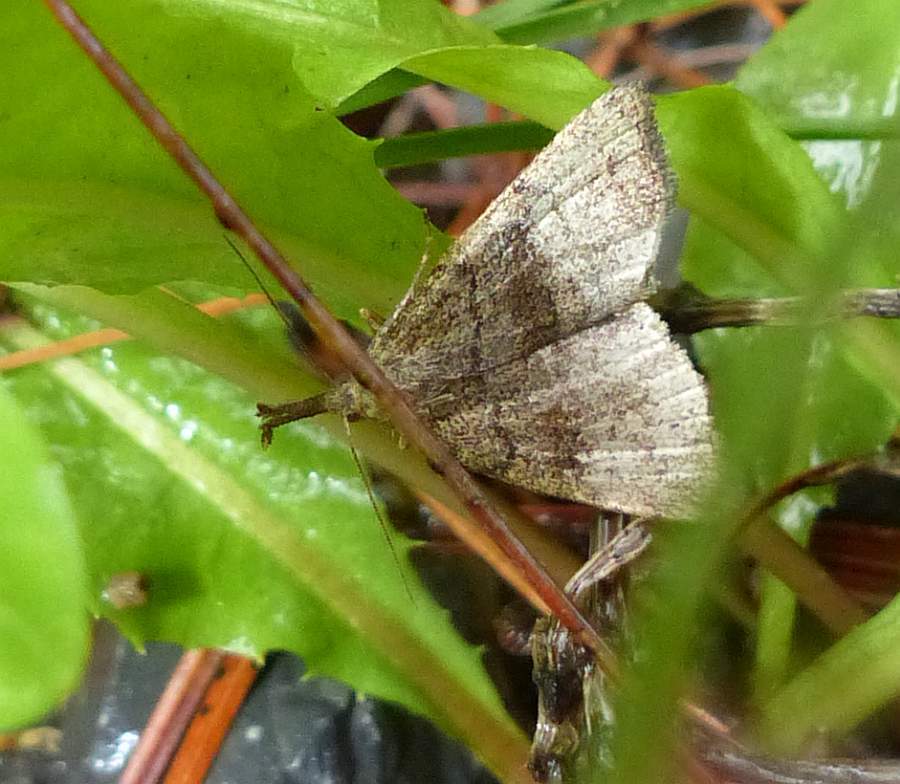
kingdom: Animalia
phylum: Arthropoda
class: Insecta
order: Lepidoptera
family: Erebidae
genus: Phalaenostola
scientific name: Phalaenostola metonalis
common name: Pale phalaenostola moth
